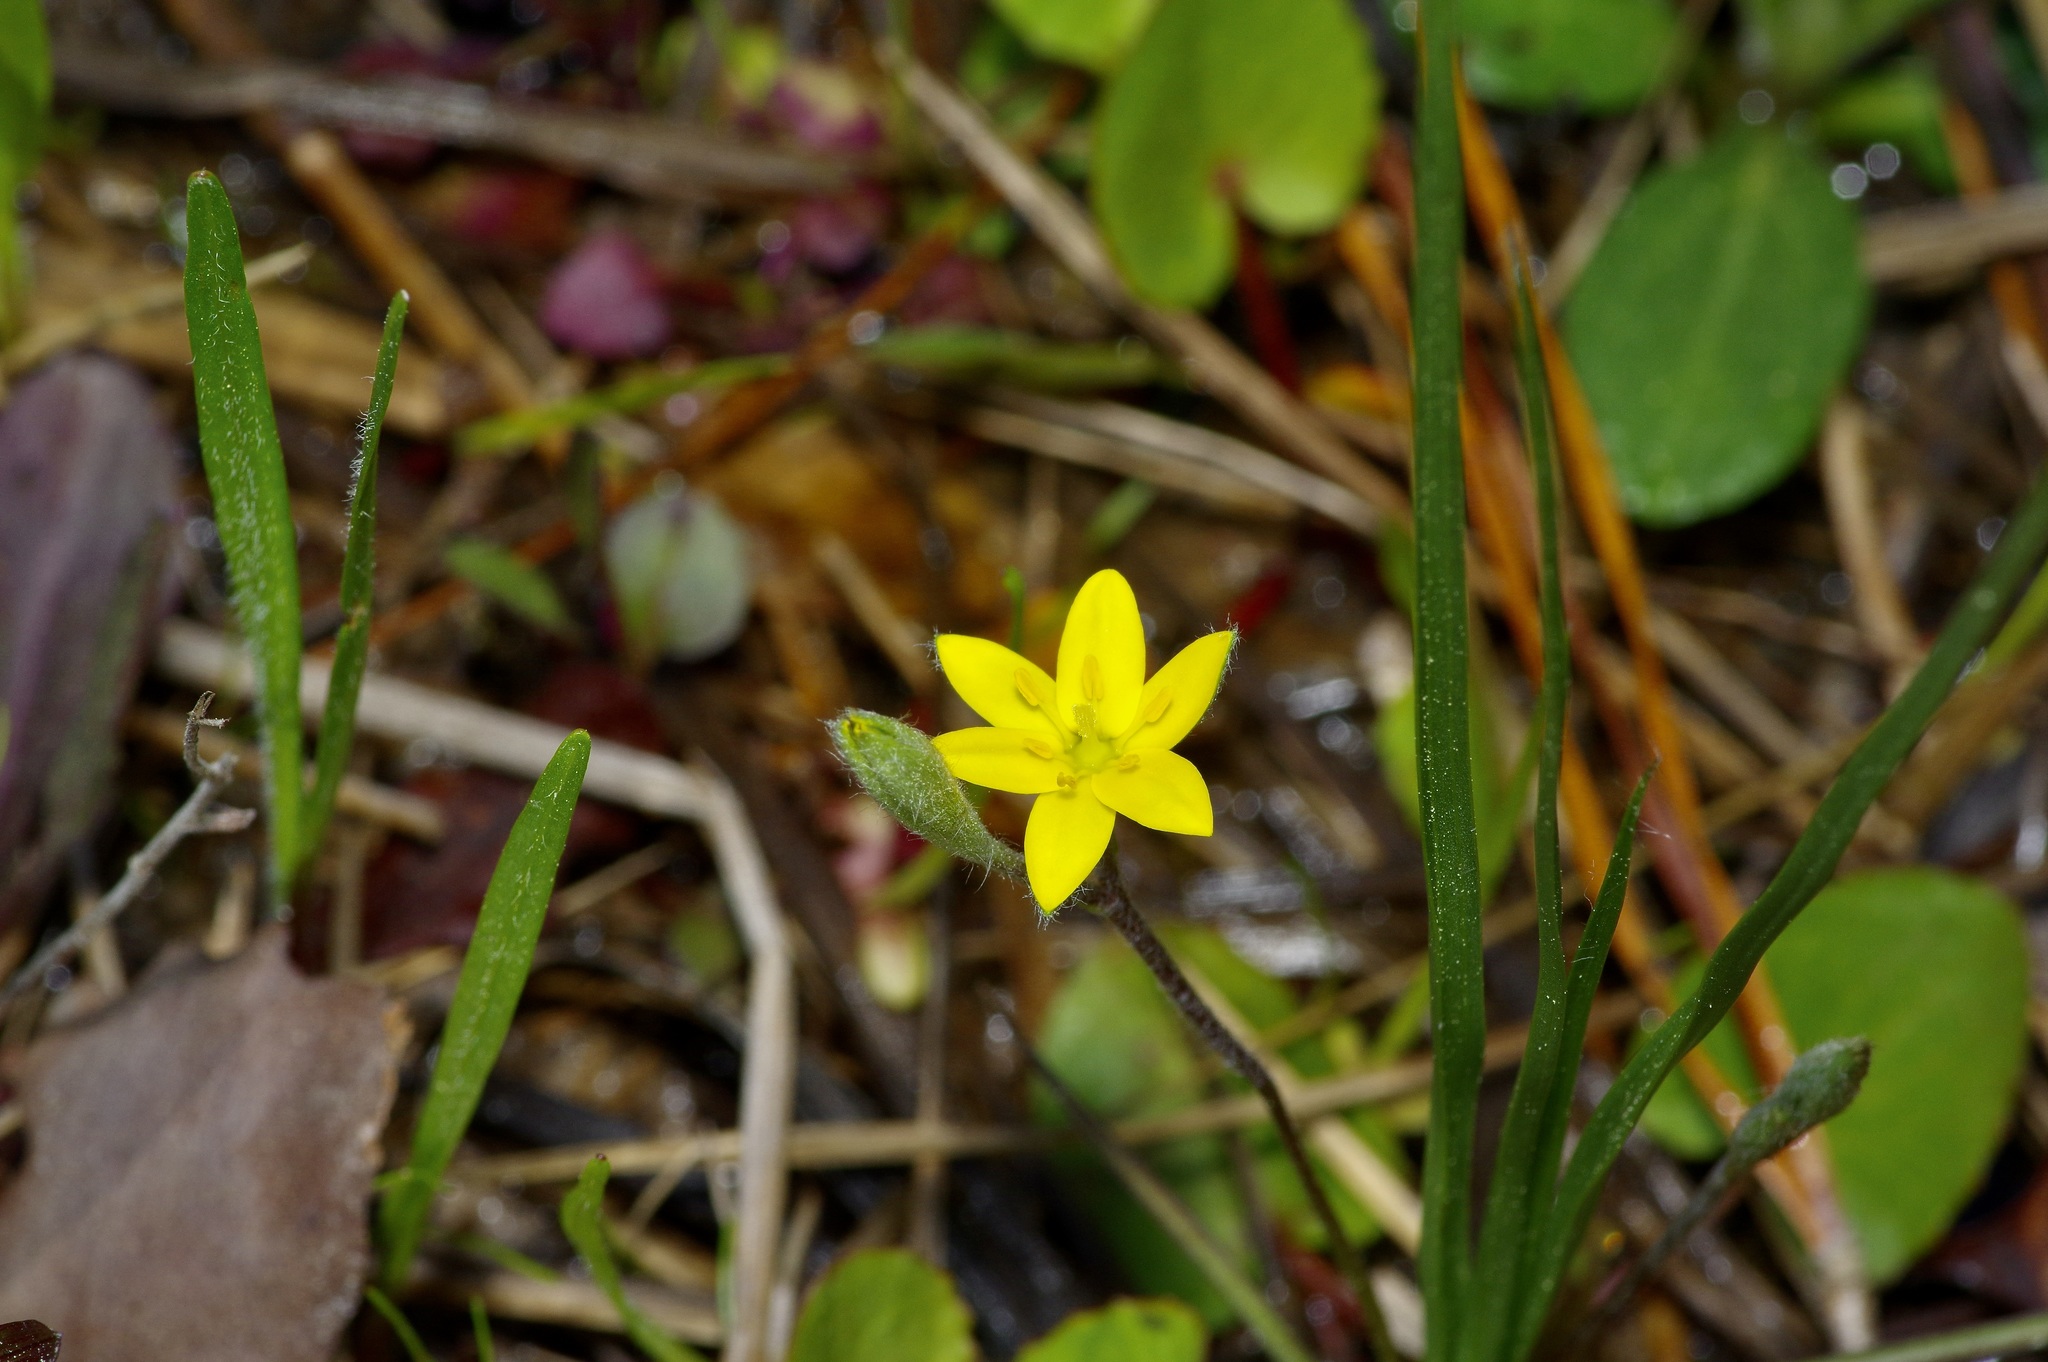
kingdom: Plantae
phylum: Tracheophyta
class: Liliopsida
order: Asparagales
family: Hypoxidaceae
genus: Hypoxis
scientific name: Hypoxis hirsuta
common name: Common goldstar
